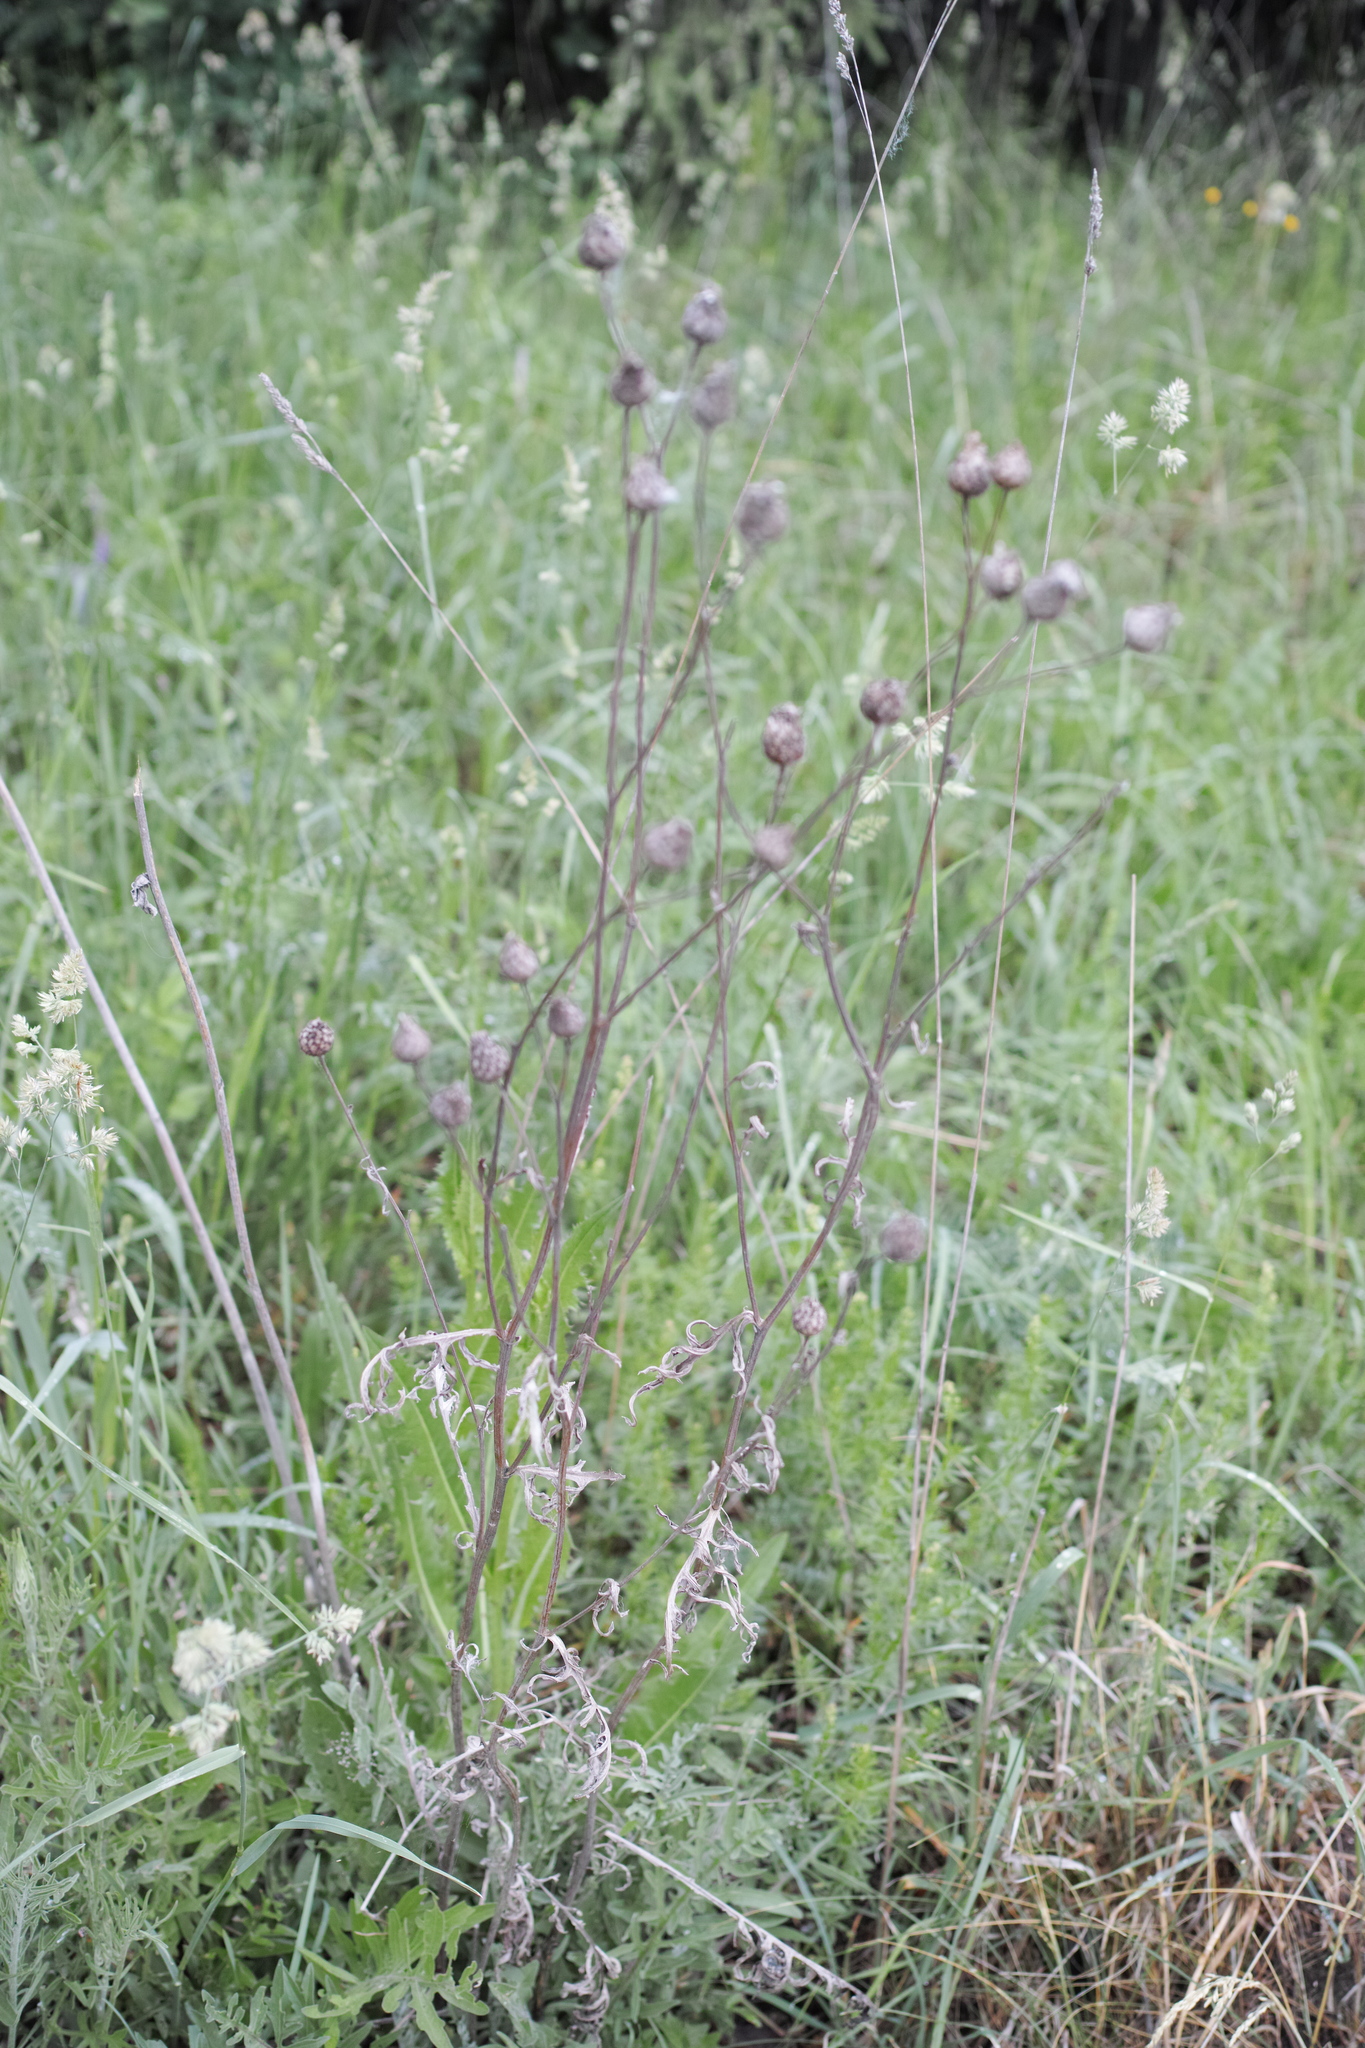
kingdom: Plantae
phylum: Tracheophyta
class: Magnoliopsida
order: Asterales
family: Asteraceae
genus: Centaurea
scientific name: Centaurea scabiosa
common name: Greater knapweed
